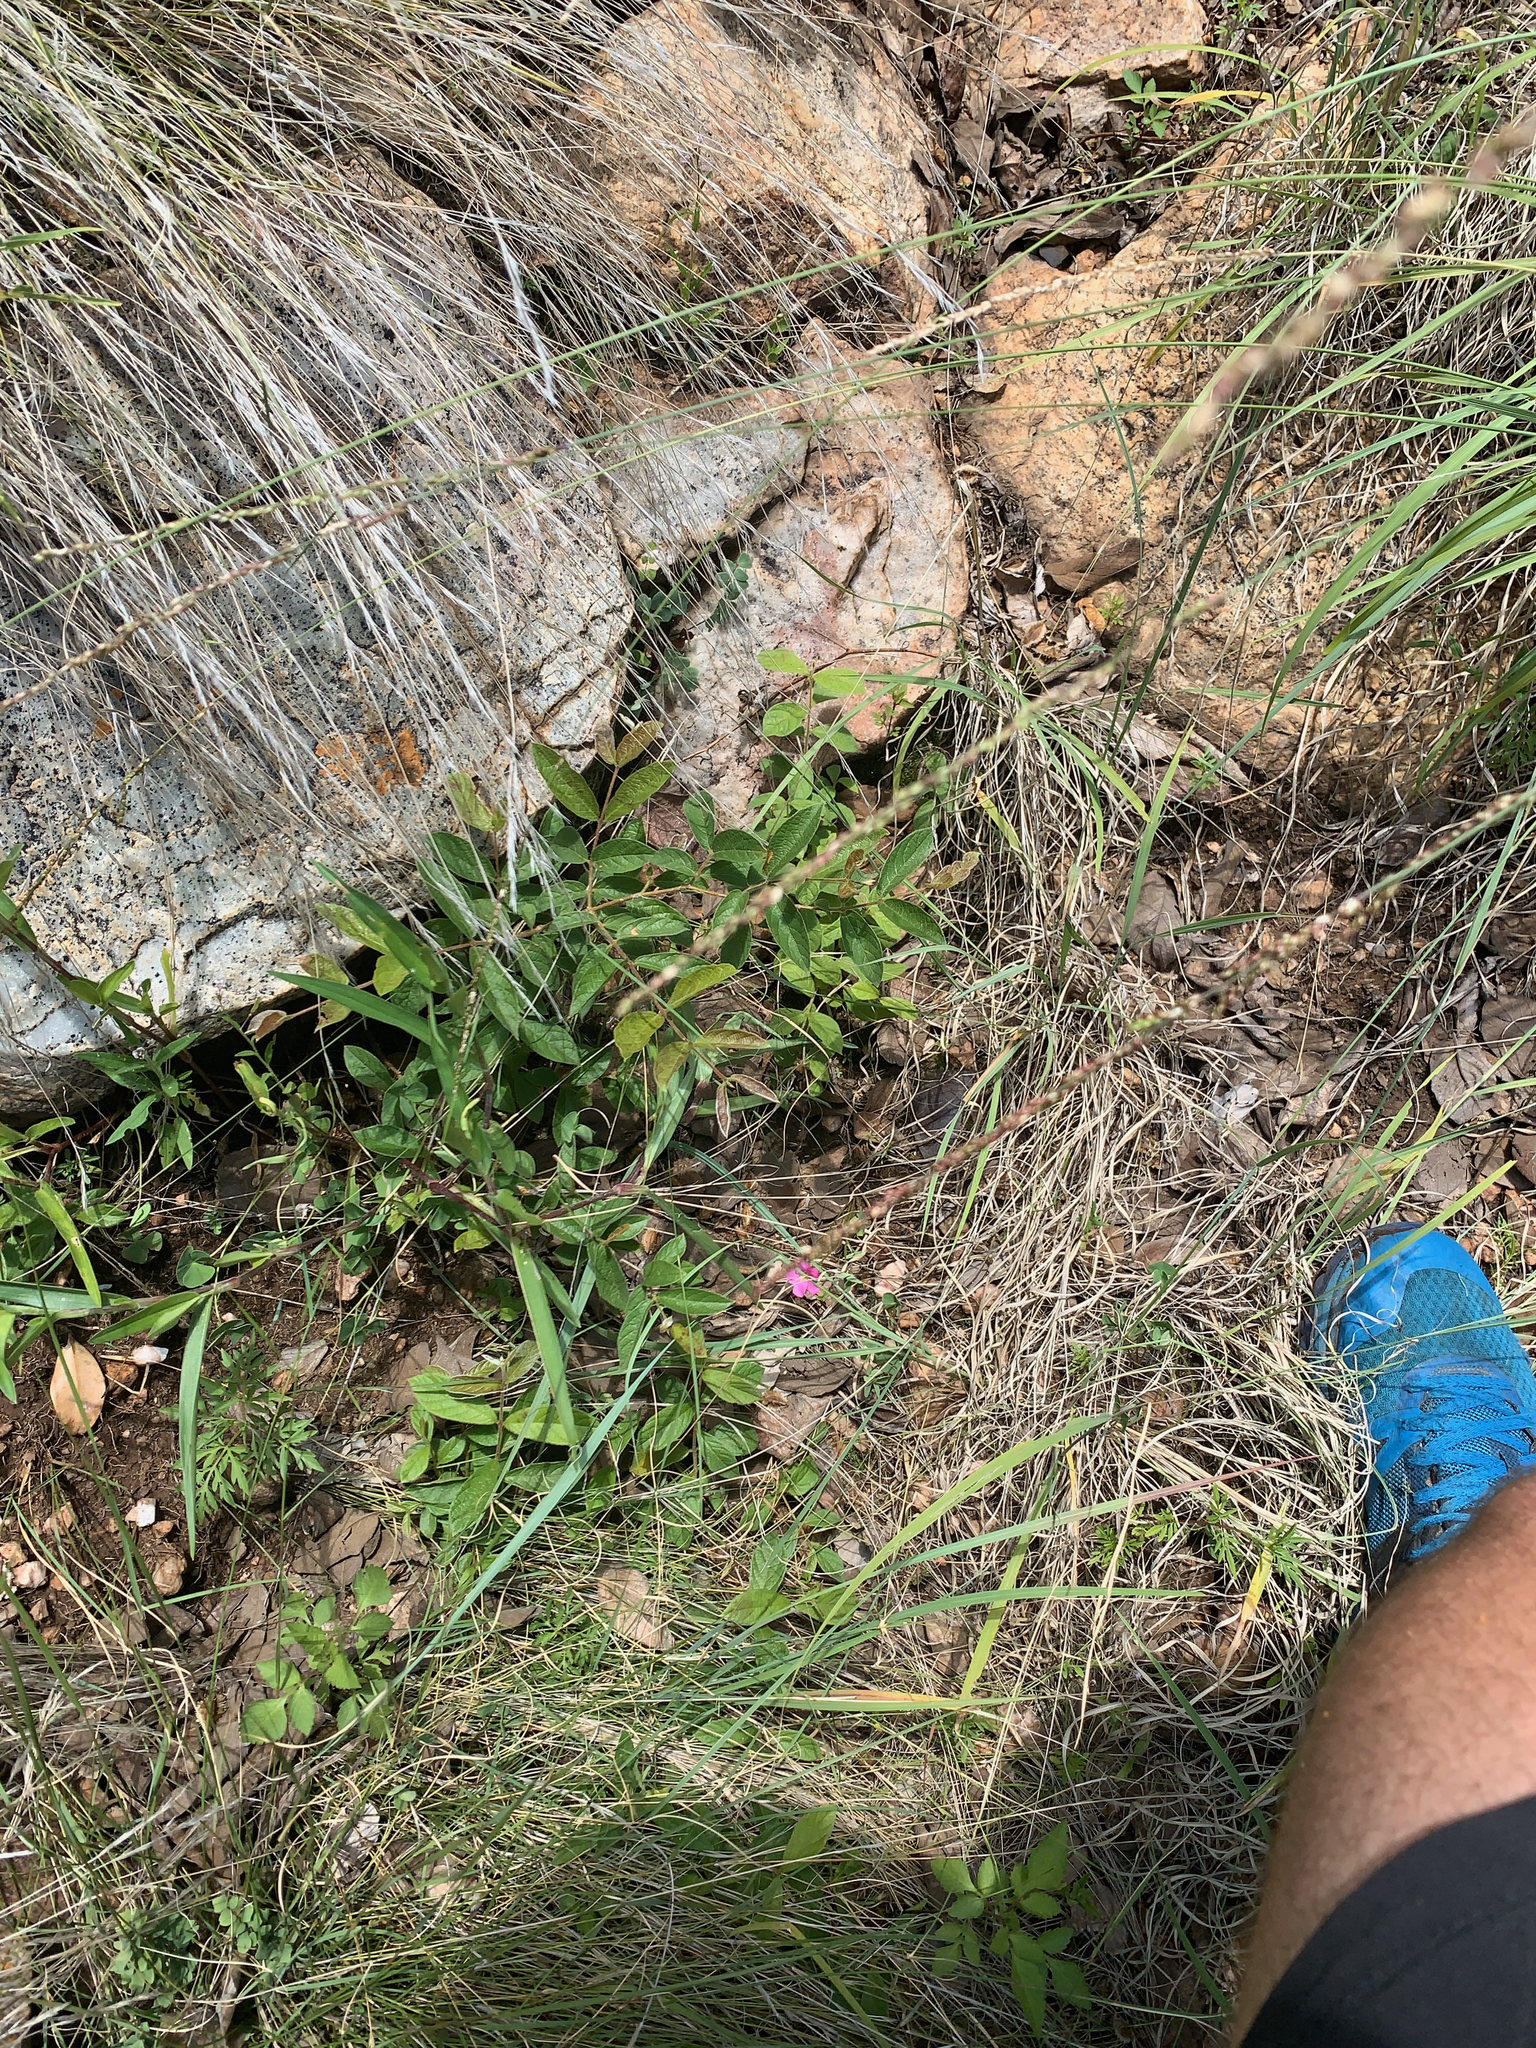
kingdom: Plantae
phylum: Tracheophyta
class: Magnoliopsida
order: Oxalidales
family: Oxalidaceae
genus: Oxalis
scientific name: Oxalis obliquifolia
